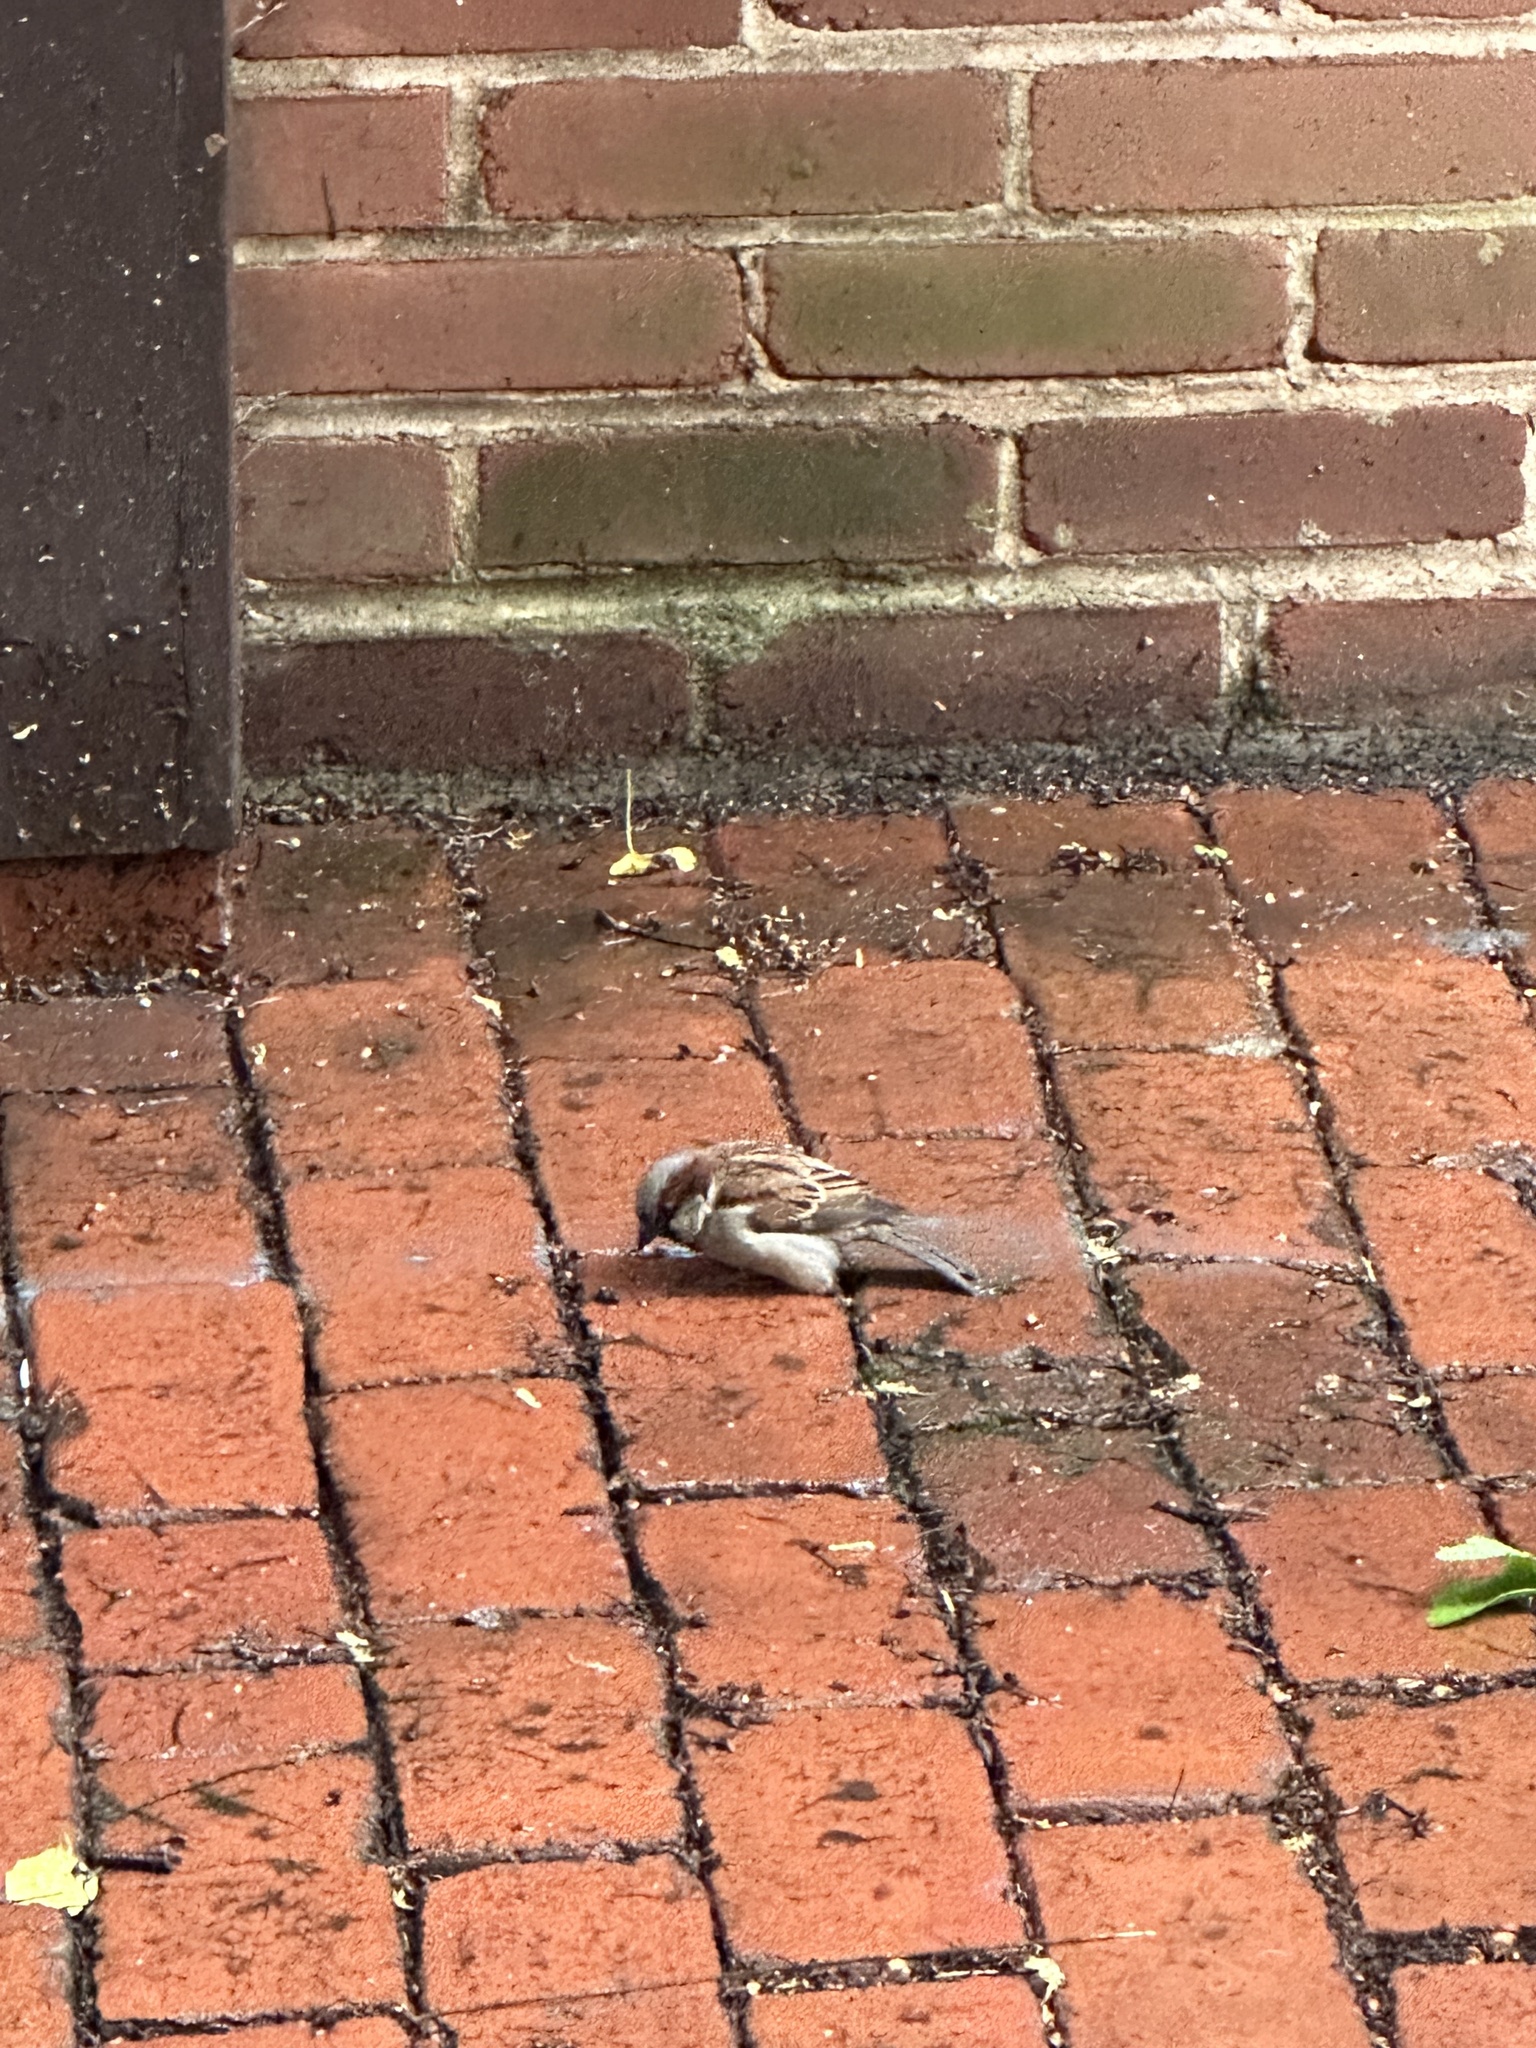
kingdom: Animalia
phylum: Chordata
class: Aves
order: Passeriformes
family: Passeridae
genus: Passer
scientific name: Passer domesticus
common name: House sparrow
